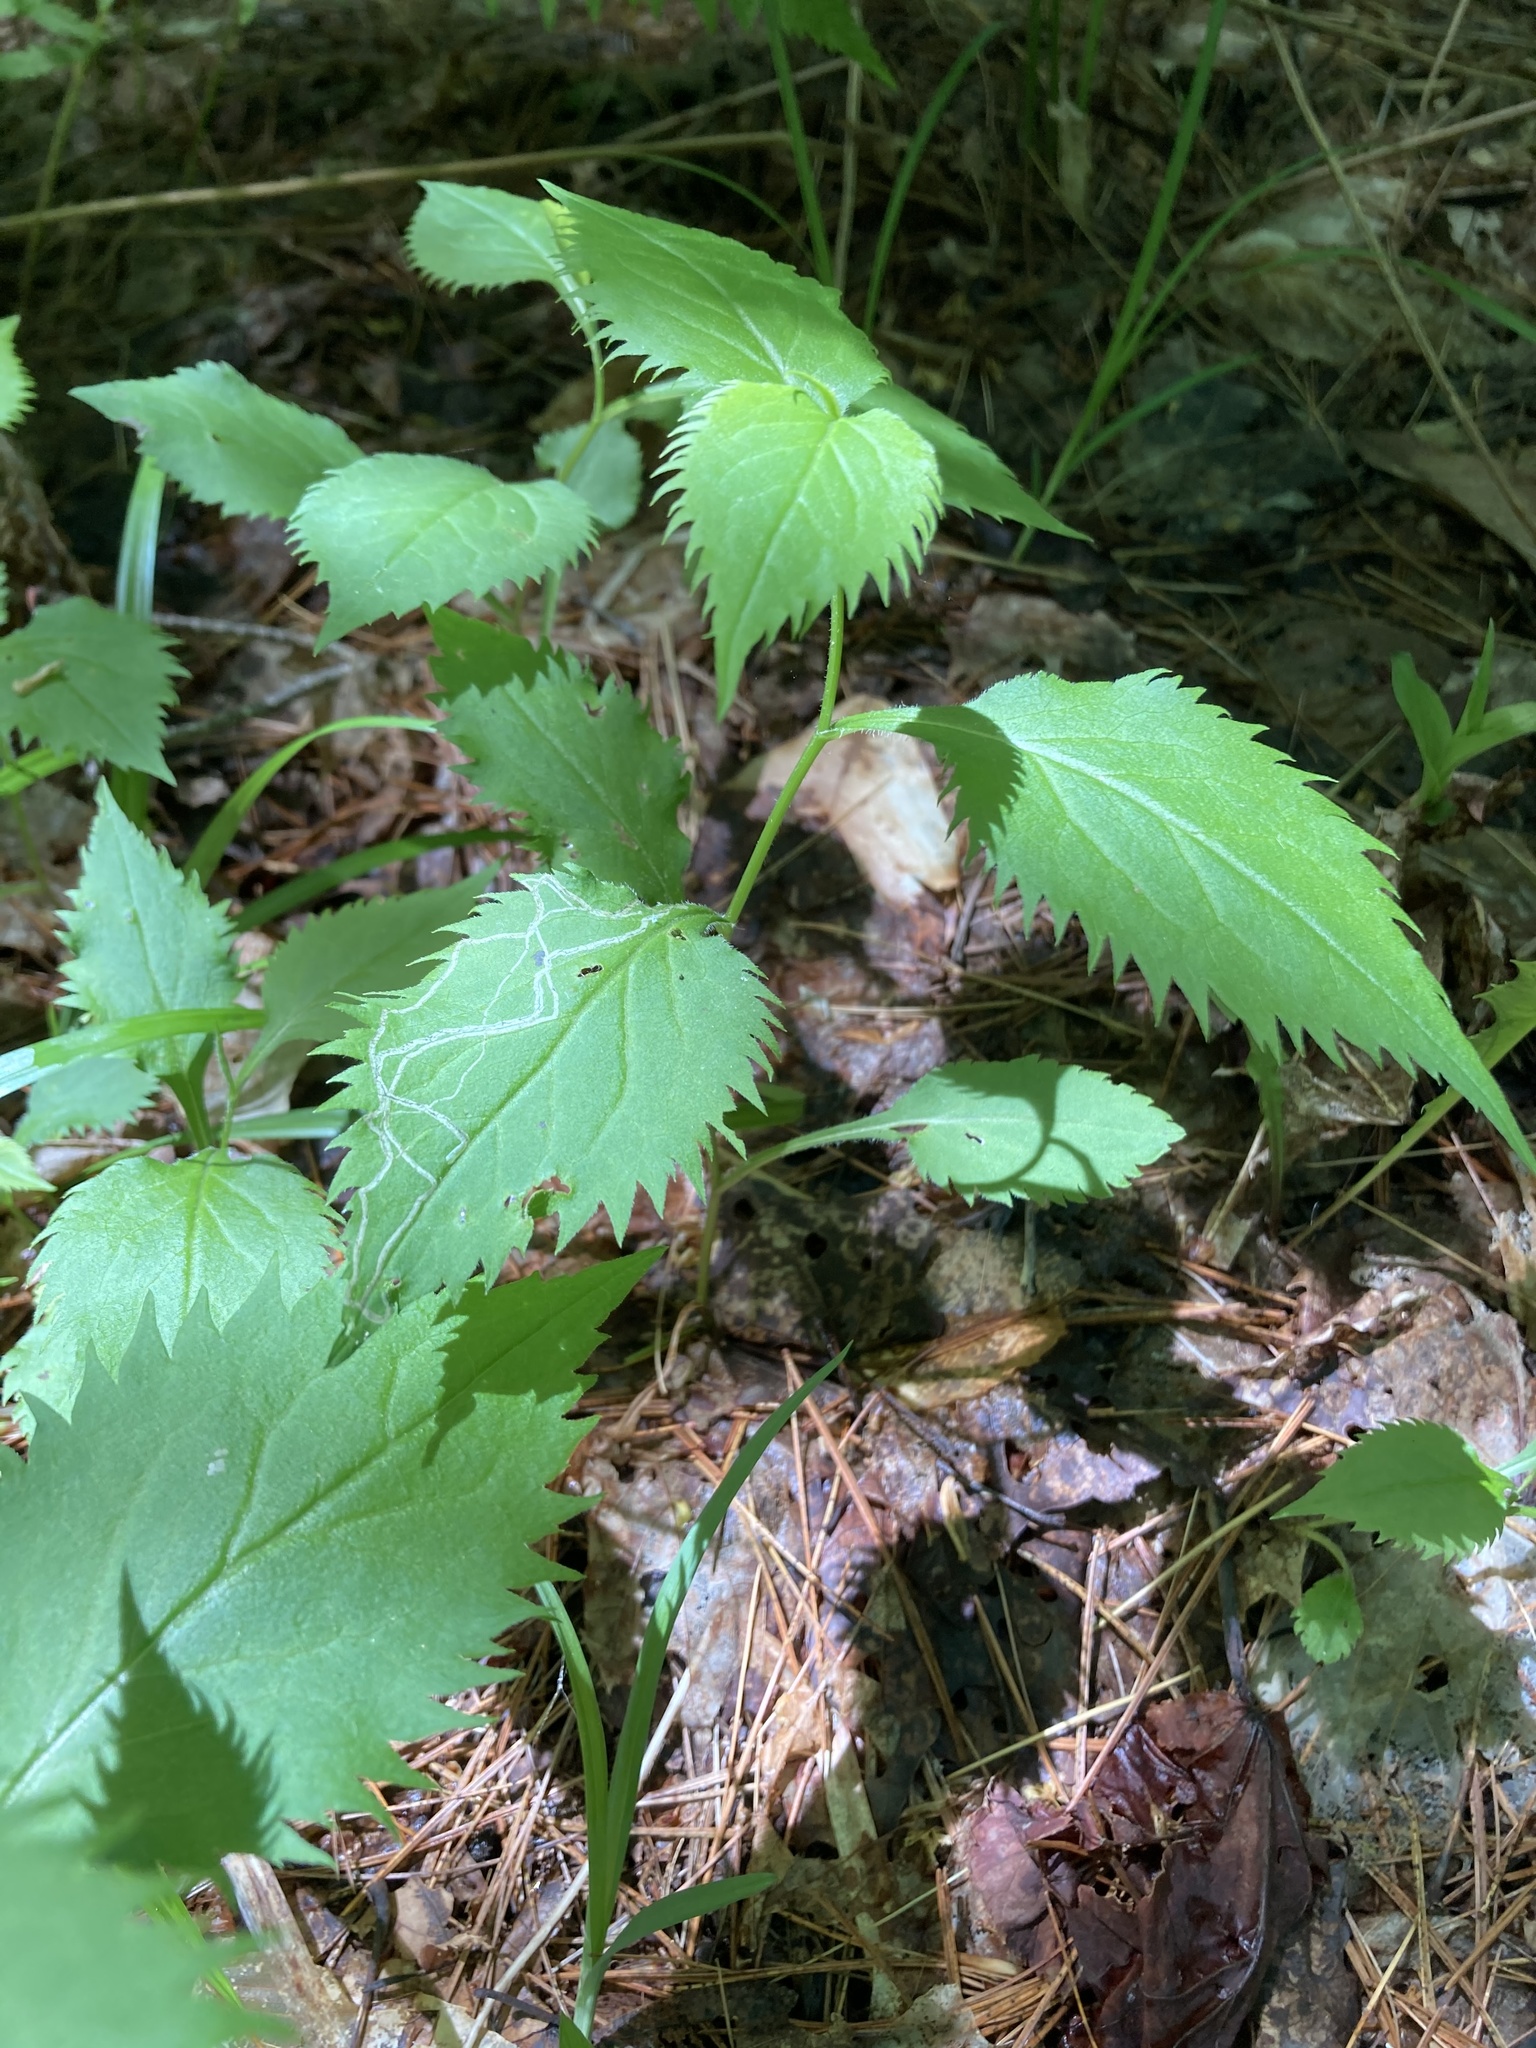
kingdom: Plantae
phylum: Tracheophyta
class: Magnoliopsida
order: Asterales
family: Asteraceae
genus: Solidago
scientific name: Solidago flexicaulis
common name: Zig-zag goldenrod
